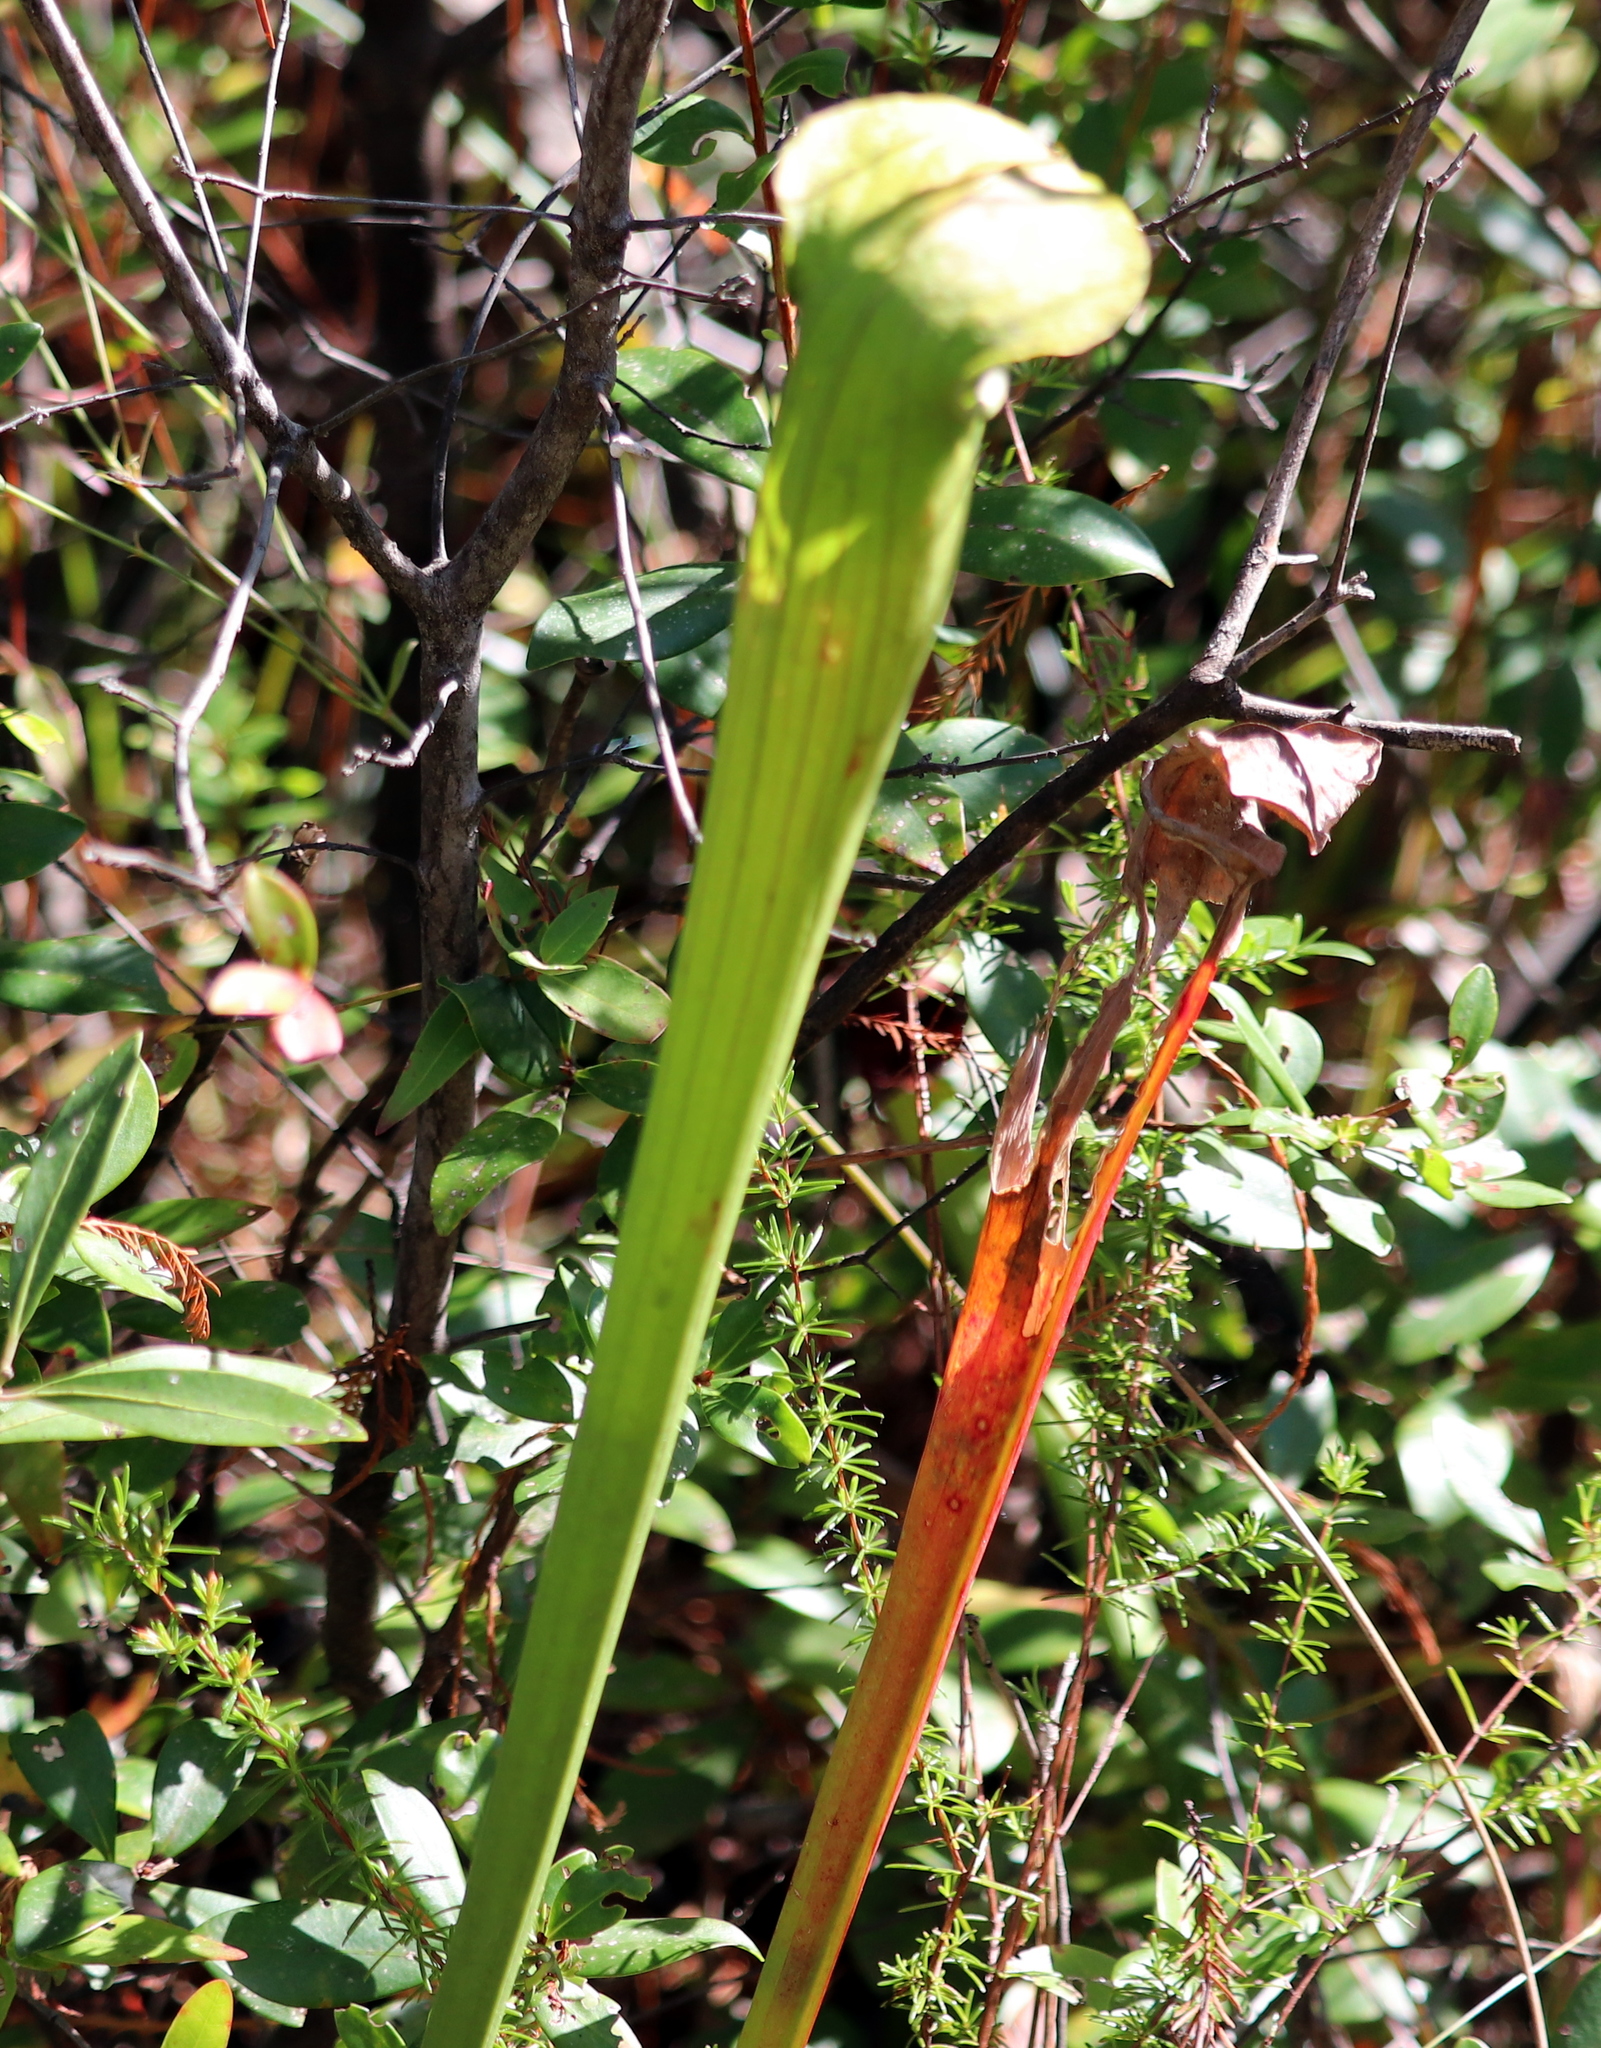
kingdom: Plantae
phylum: Tracheophyta
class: Magnoliopsida
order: Ericales
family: Sarraceniaceae
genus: Sarracenia
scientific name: Sarracenia alata
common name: Yellow trumpets
